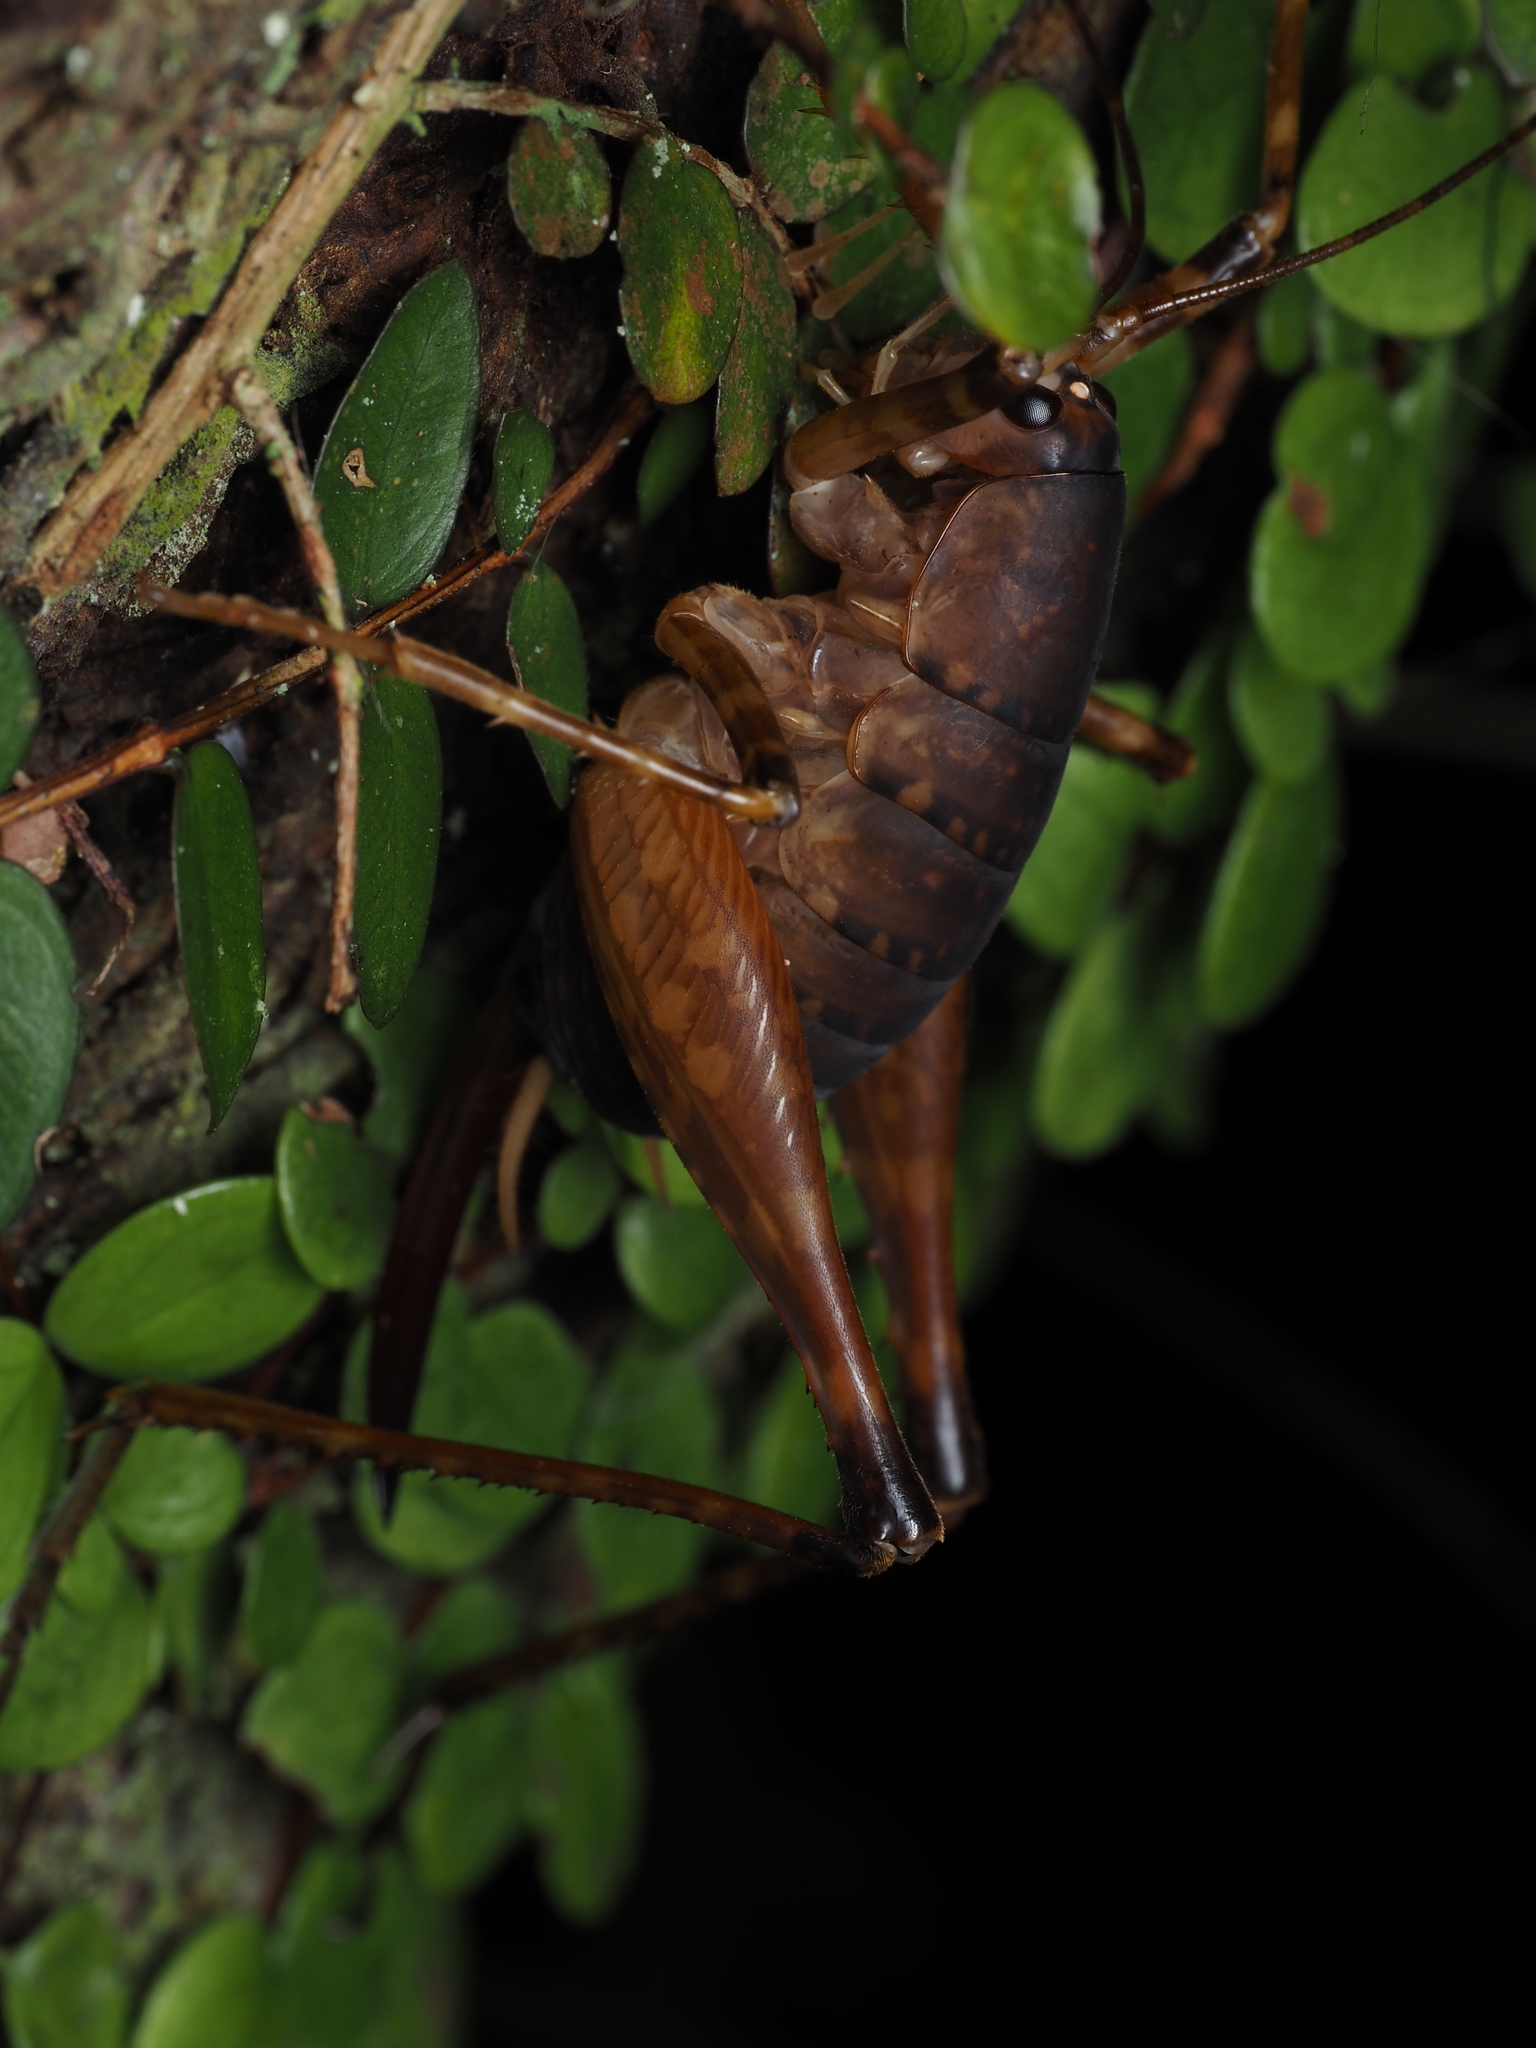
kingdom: Animalia
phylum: Arthropoda
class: Insecta
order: Orthoptera
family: Rhaphidophoridae
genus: Pachyrhamma
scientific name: Pachyrhamma longicauda
